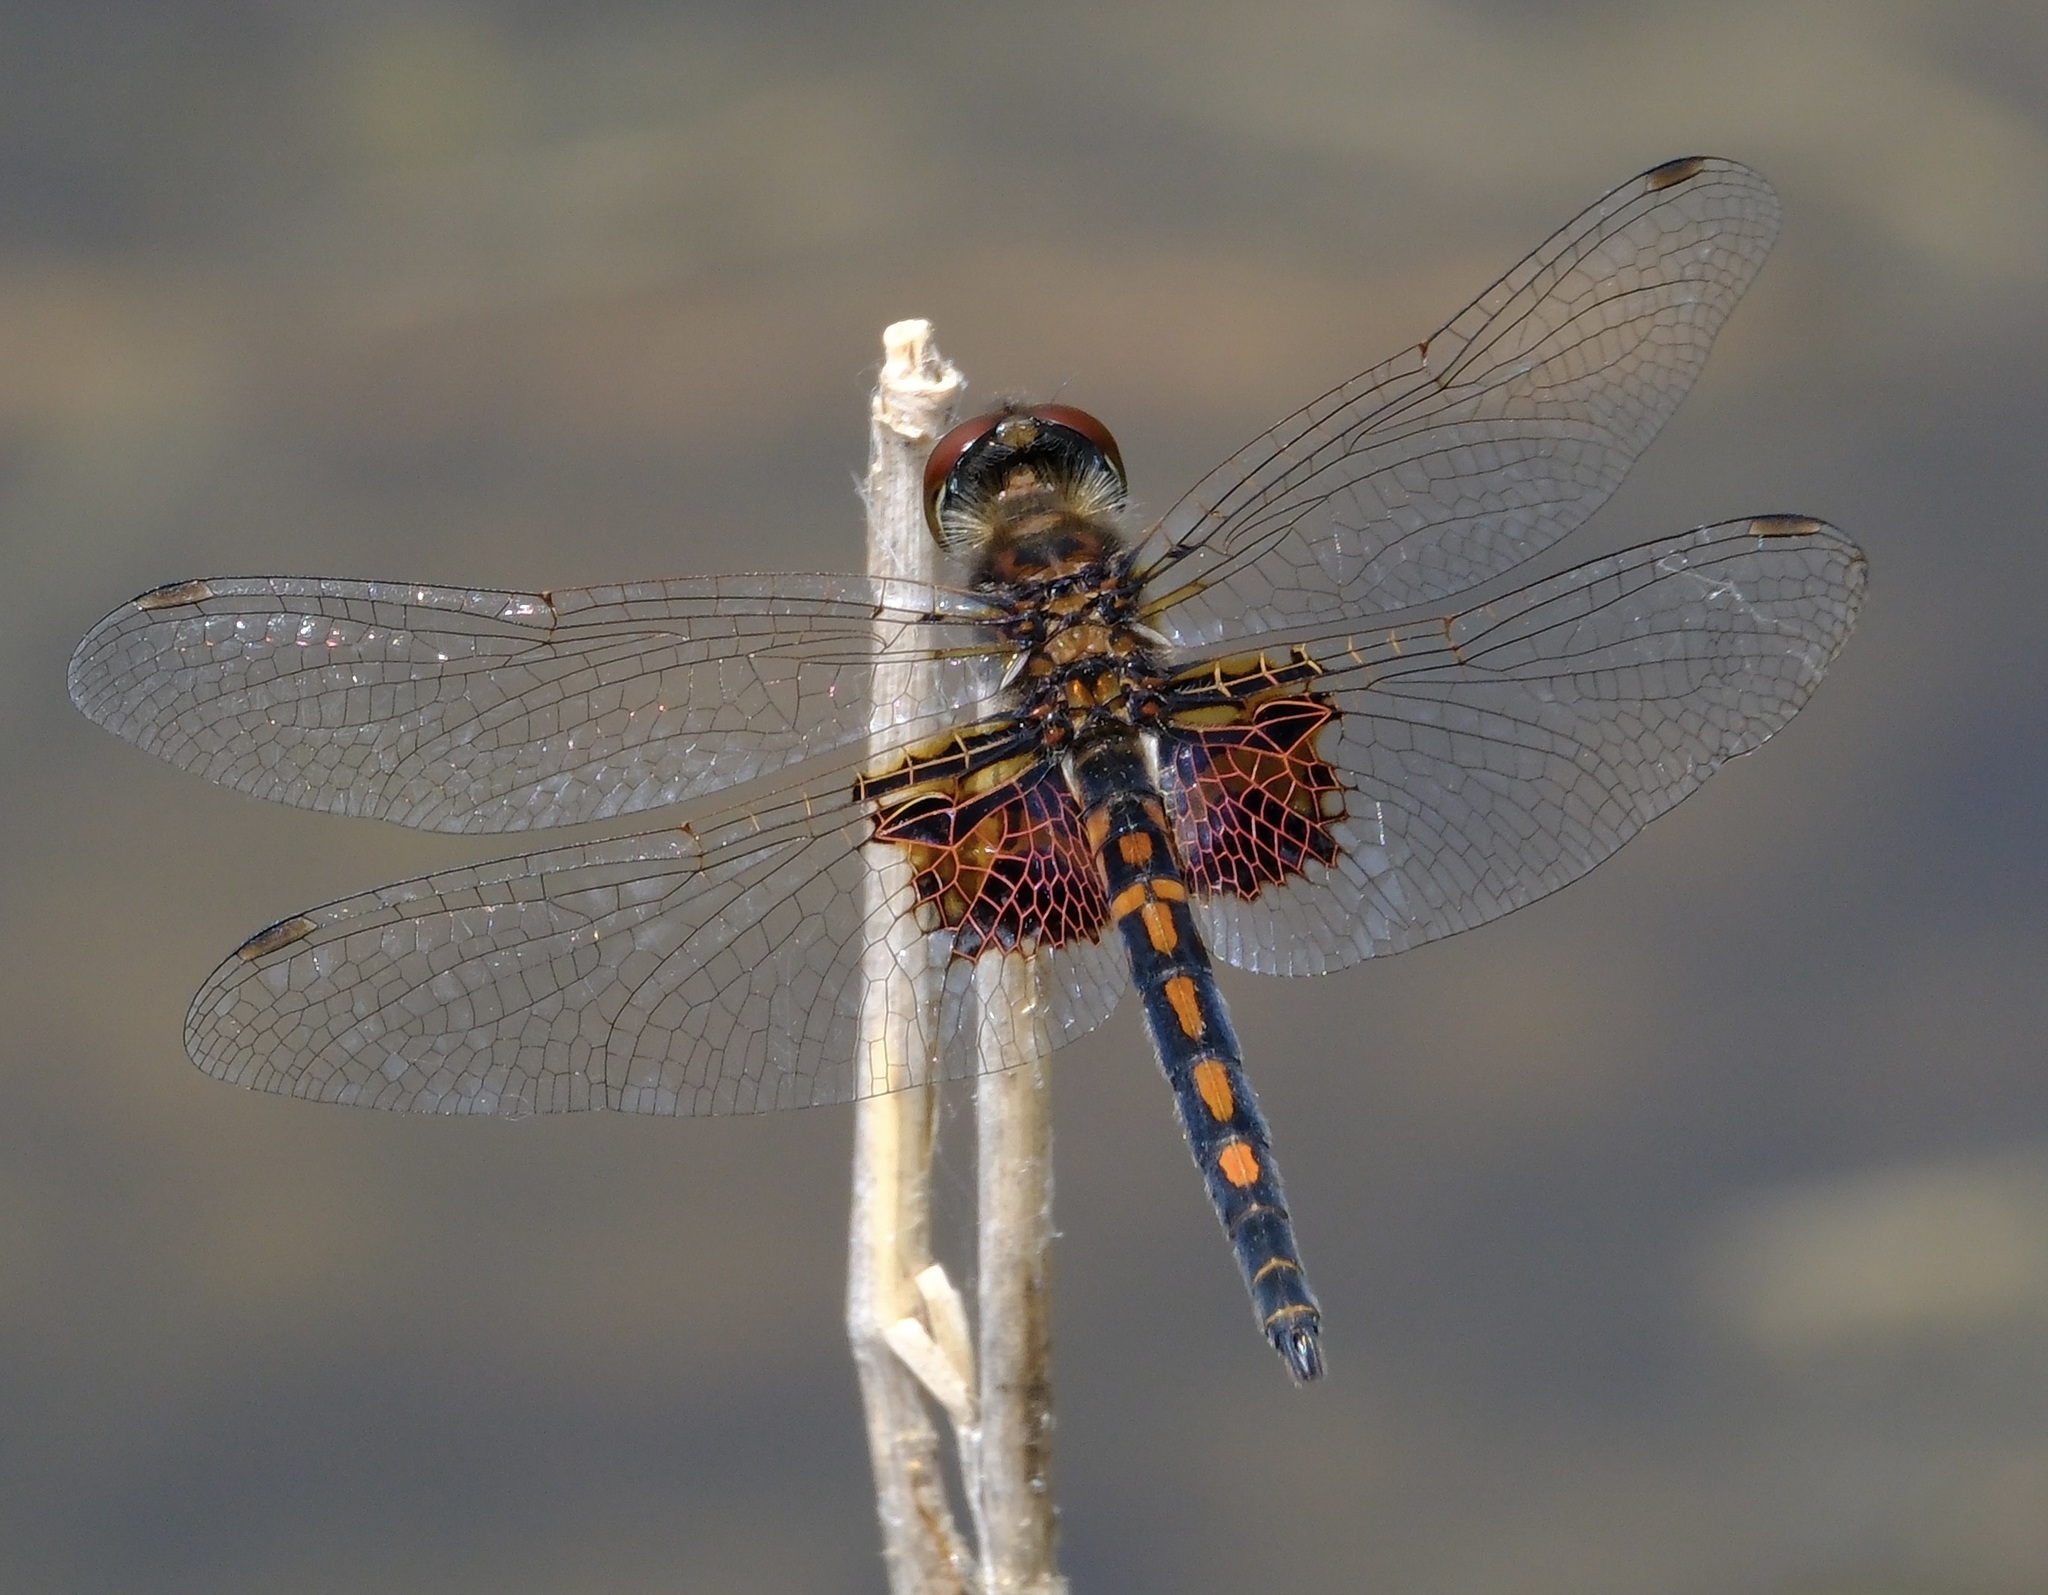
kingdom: Animalia
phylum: Arthropoda
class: Insecta
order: Odonata
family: Libellulidae
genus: Celithemis
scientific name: Celithemis ornata
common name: Ornate pennant
